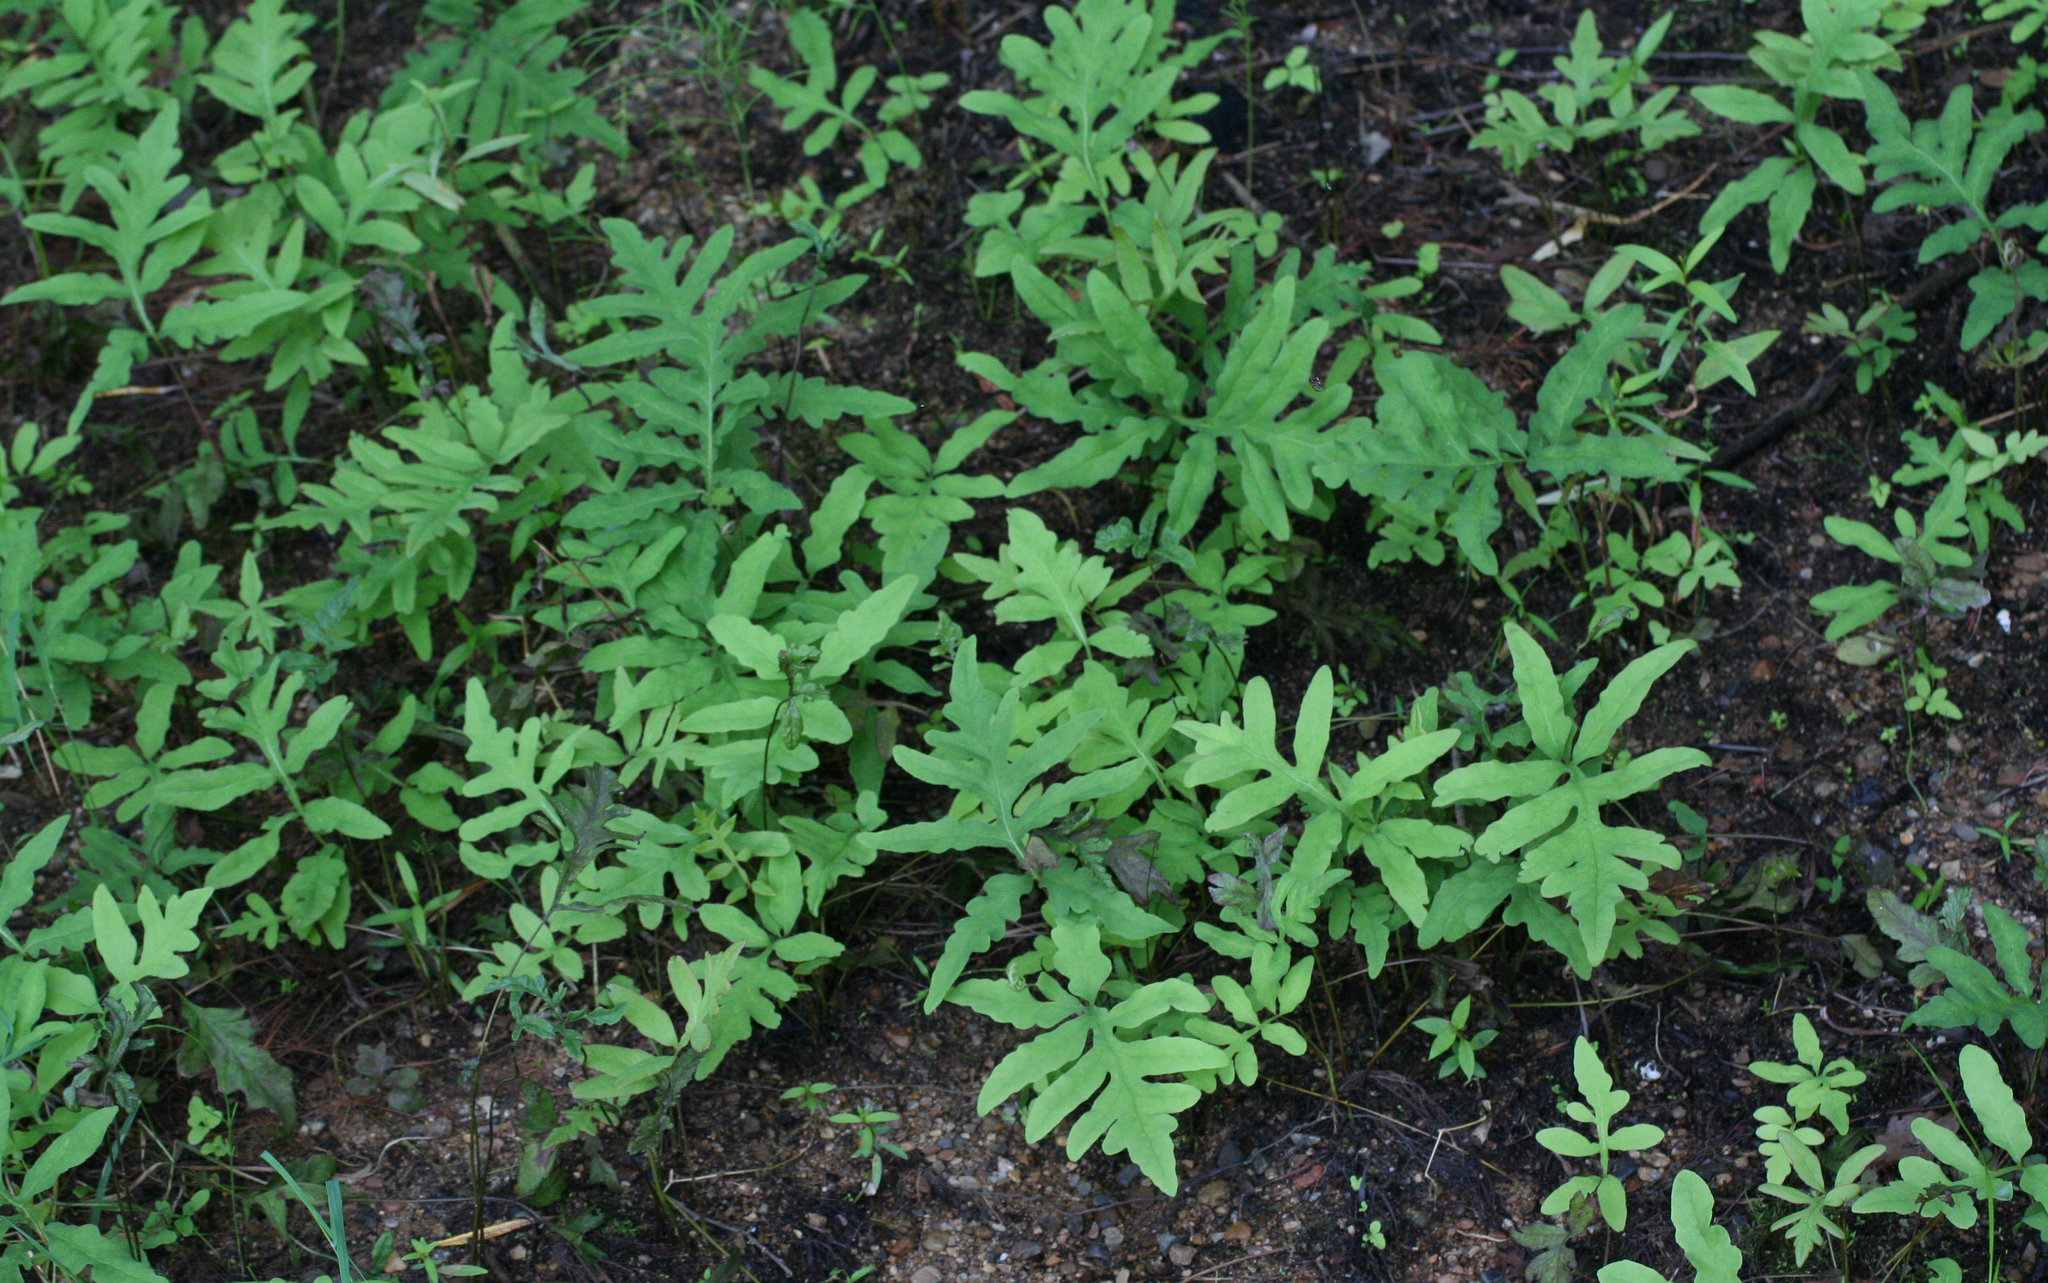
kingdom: Plantae
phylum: Tracheophyta
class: Polypodiopsida
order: Polypodiales
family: Onocleaceae
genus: Onoclea
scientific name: Onoclea sensibilis
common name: Sensitive fern
